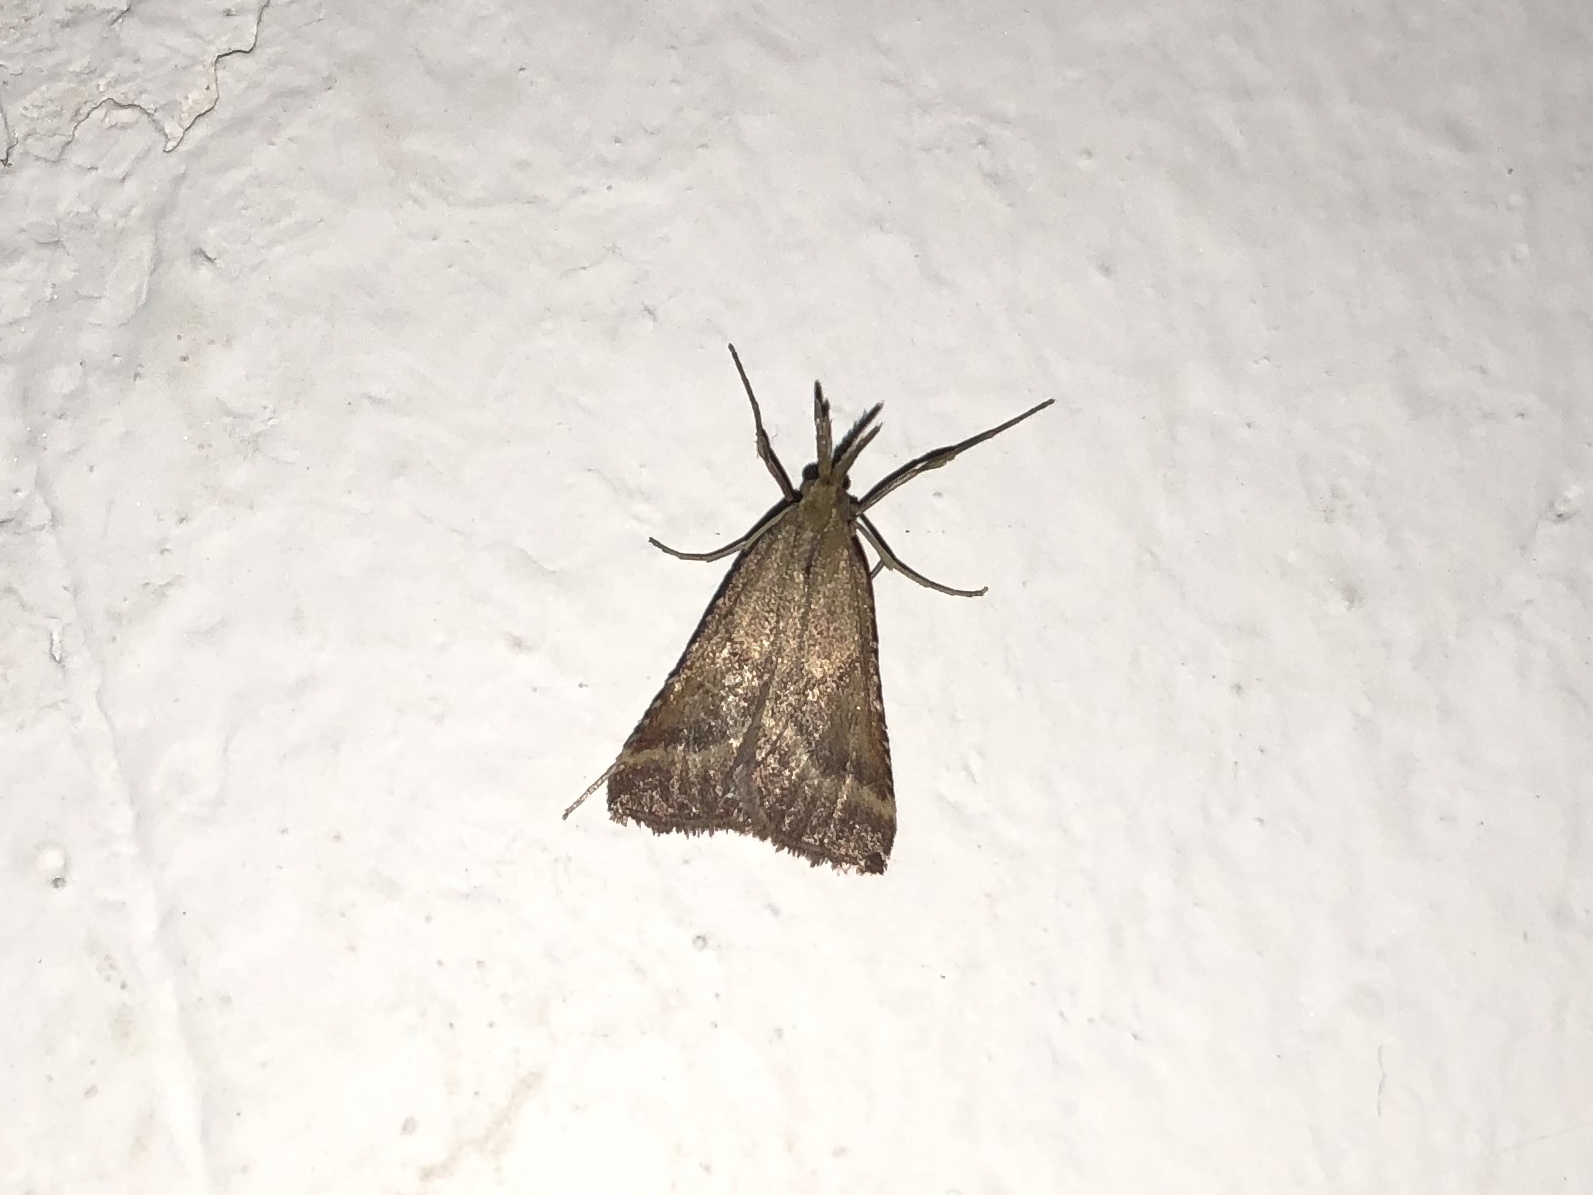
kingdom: Animalia
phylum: Arthropoda
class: Insecta
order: Lepidoptera
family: Pyralidae
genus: Synaphe
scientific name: Synaphe punctalis
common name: Long-legged tabby
